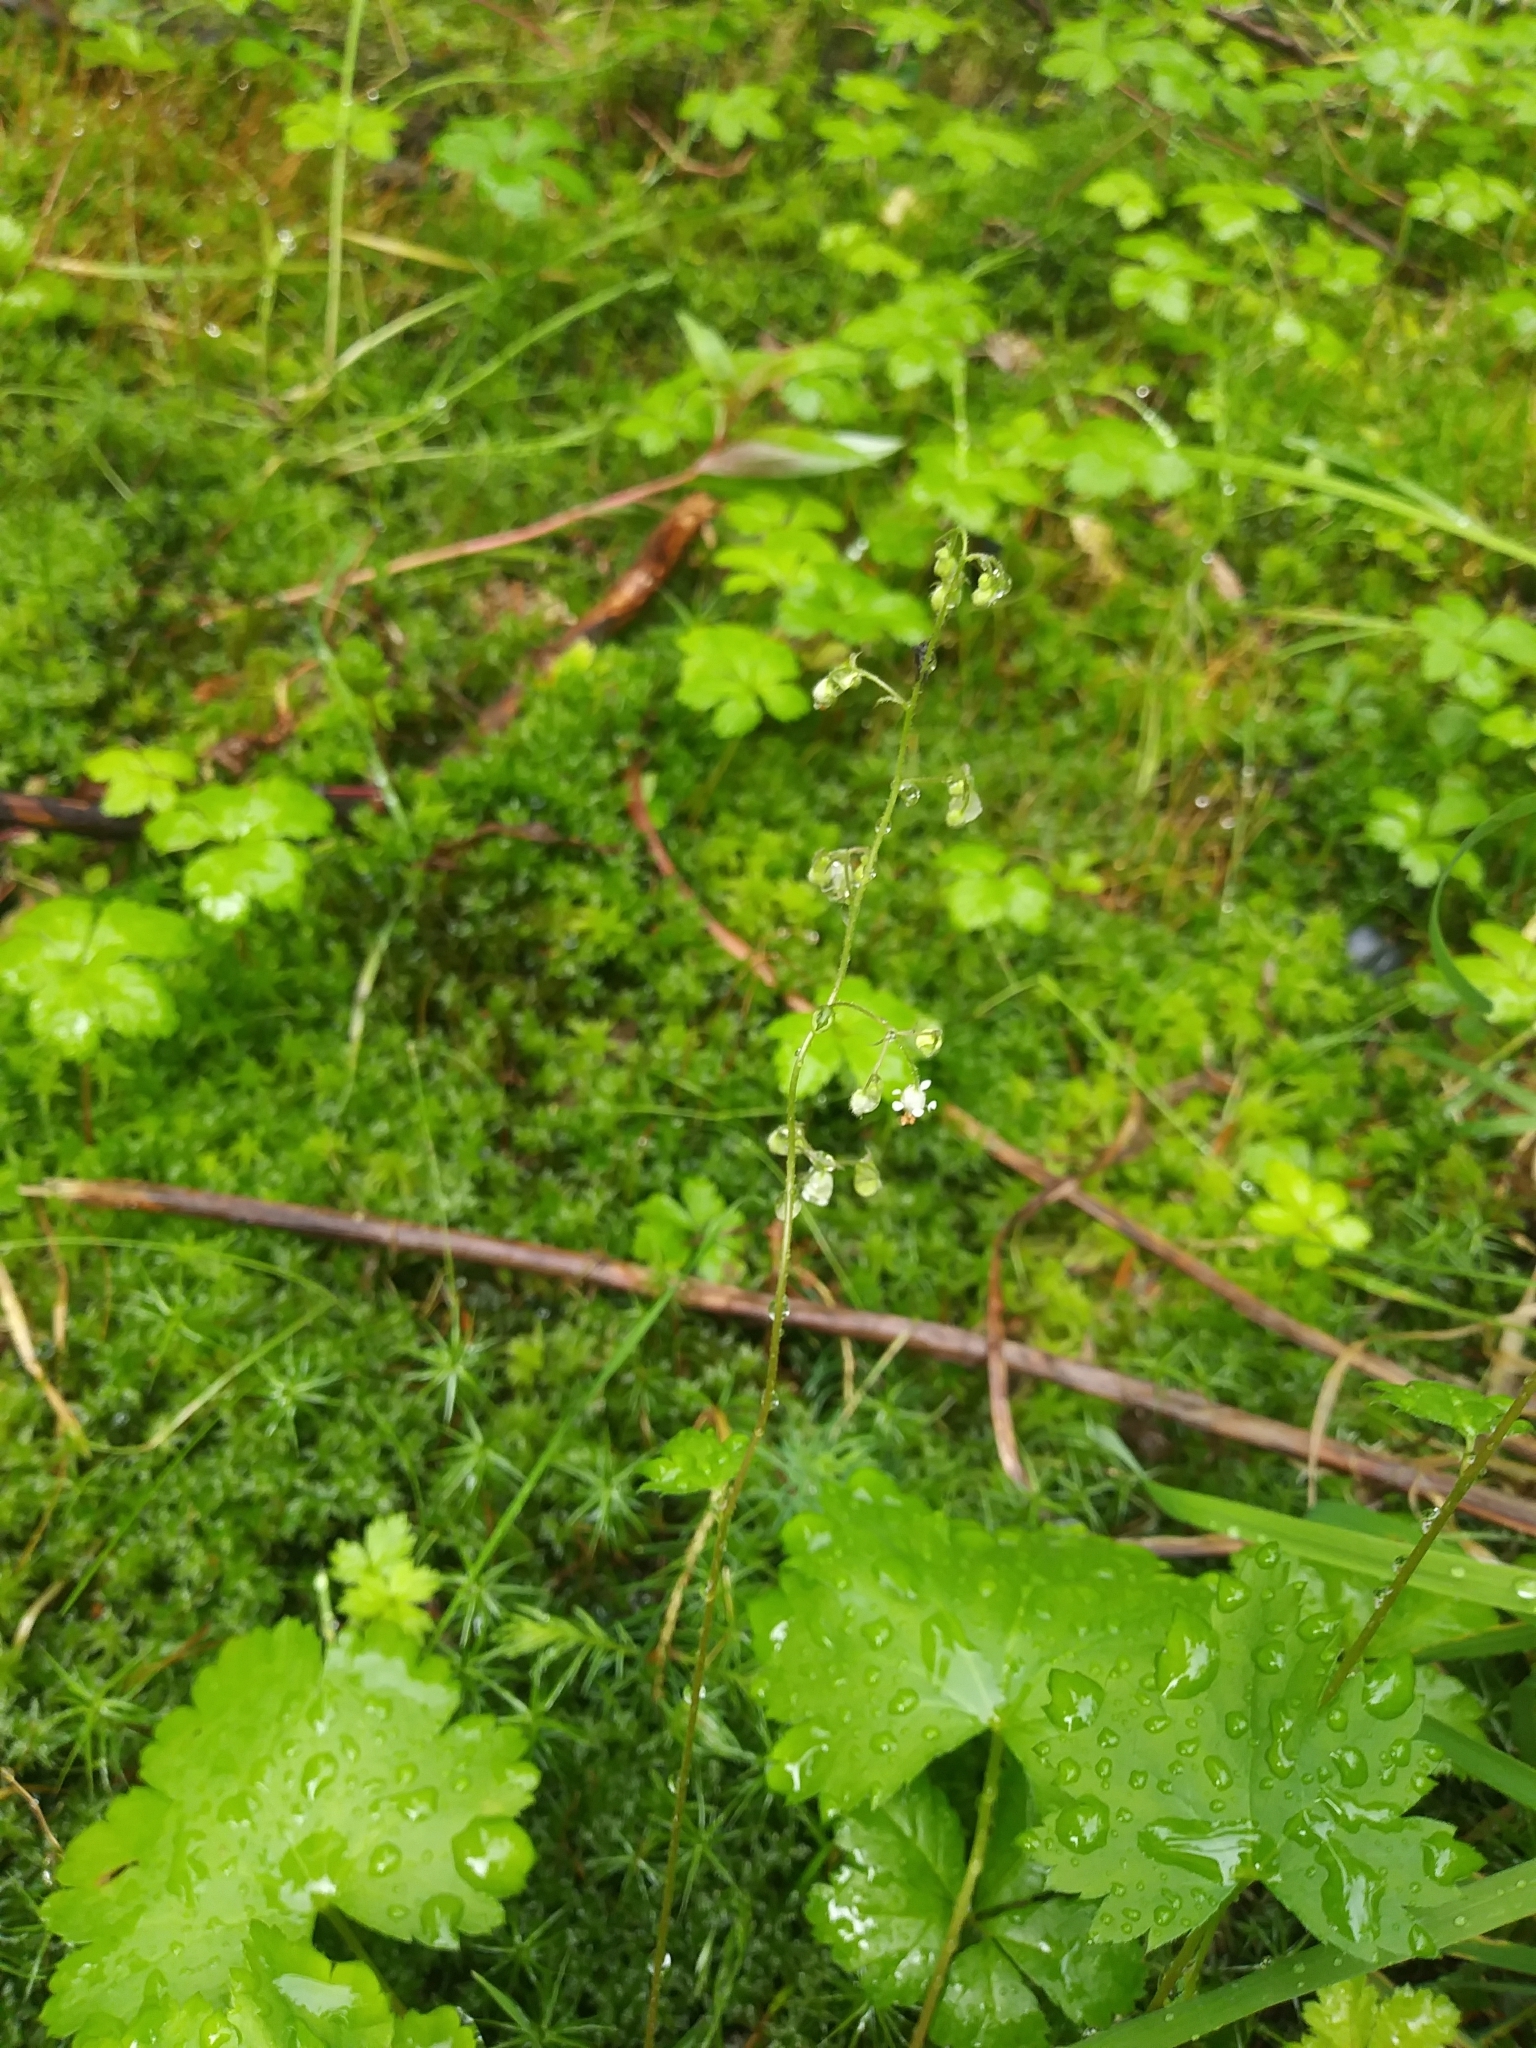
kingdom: Plantae
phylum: Tracheophyta
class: Magnoliopsida
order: Saxifragales
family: Saxifragaceae
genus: Heuchera
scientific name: Heuchera glabra
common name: Alpine alumroot
